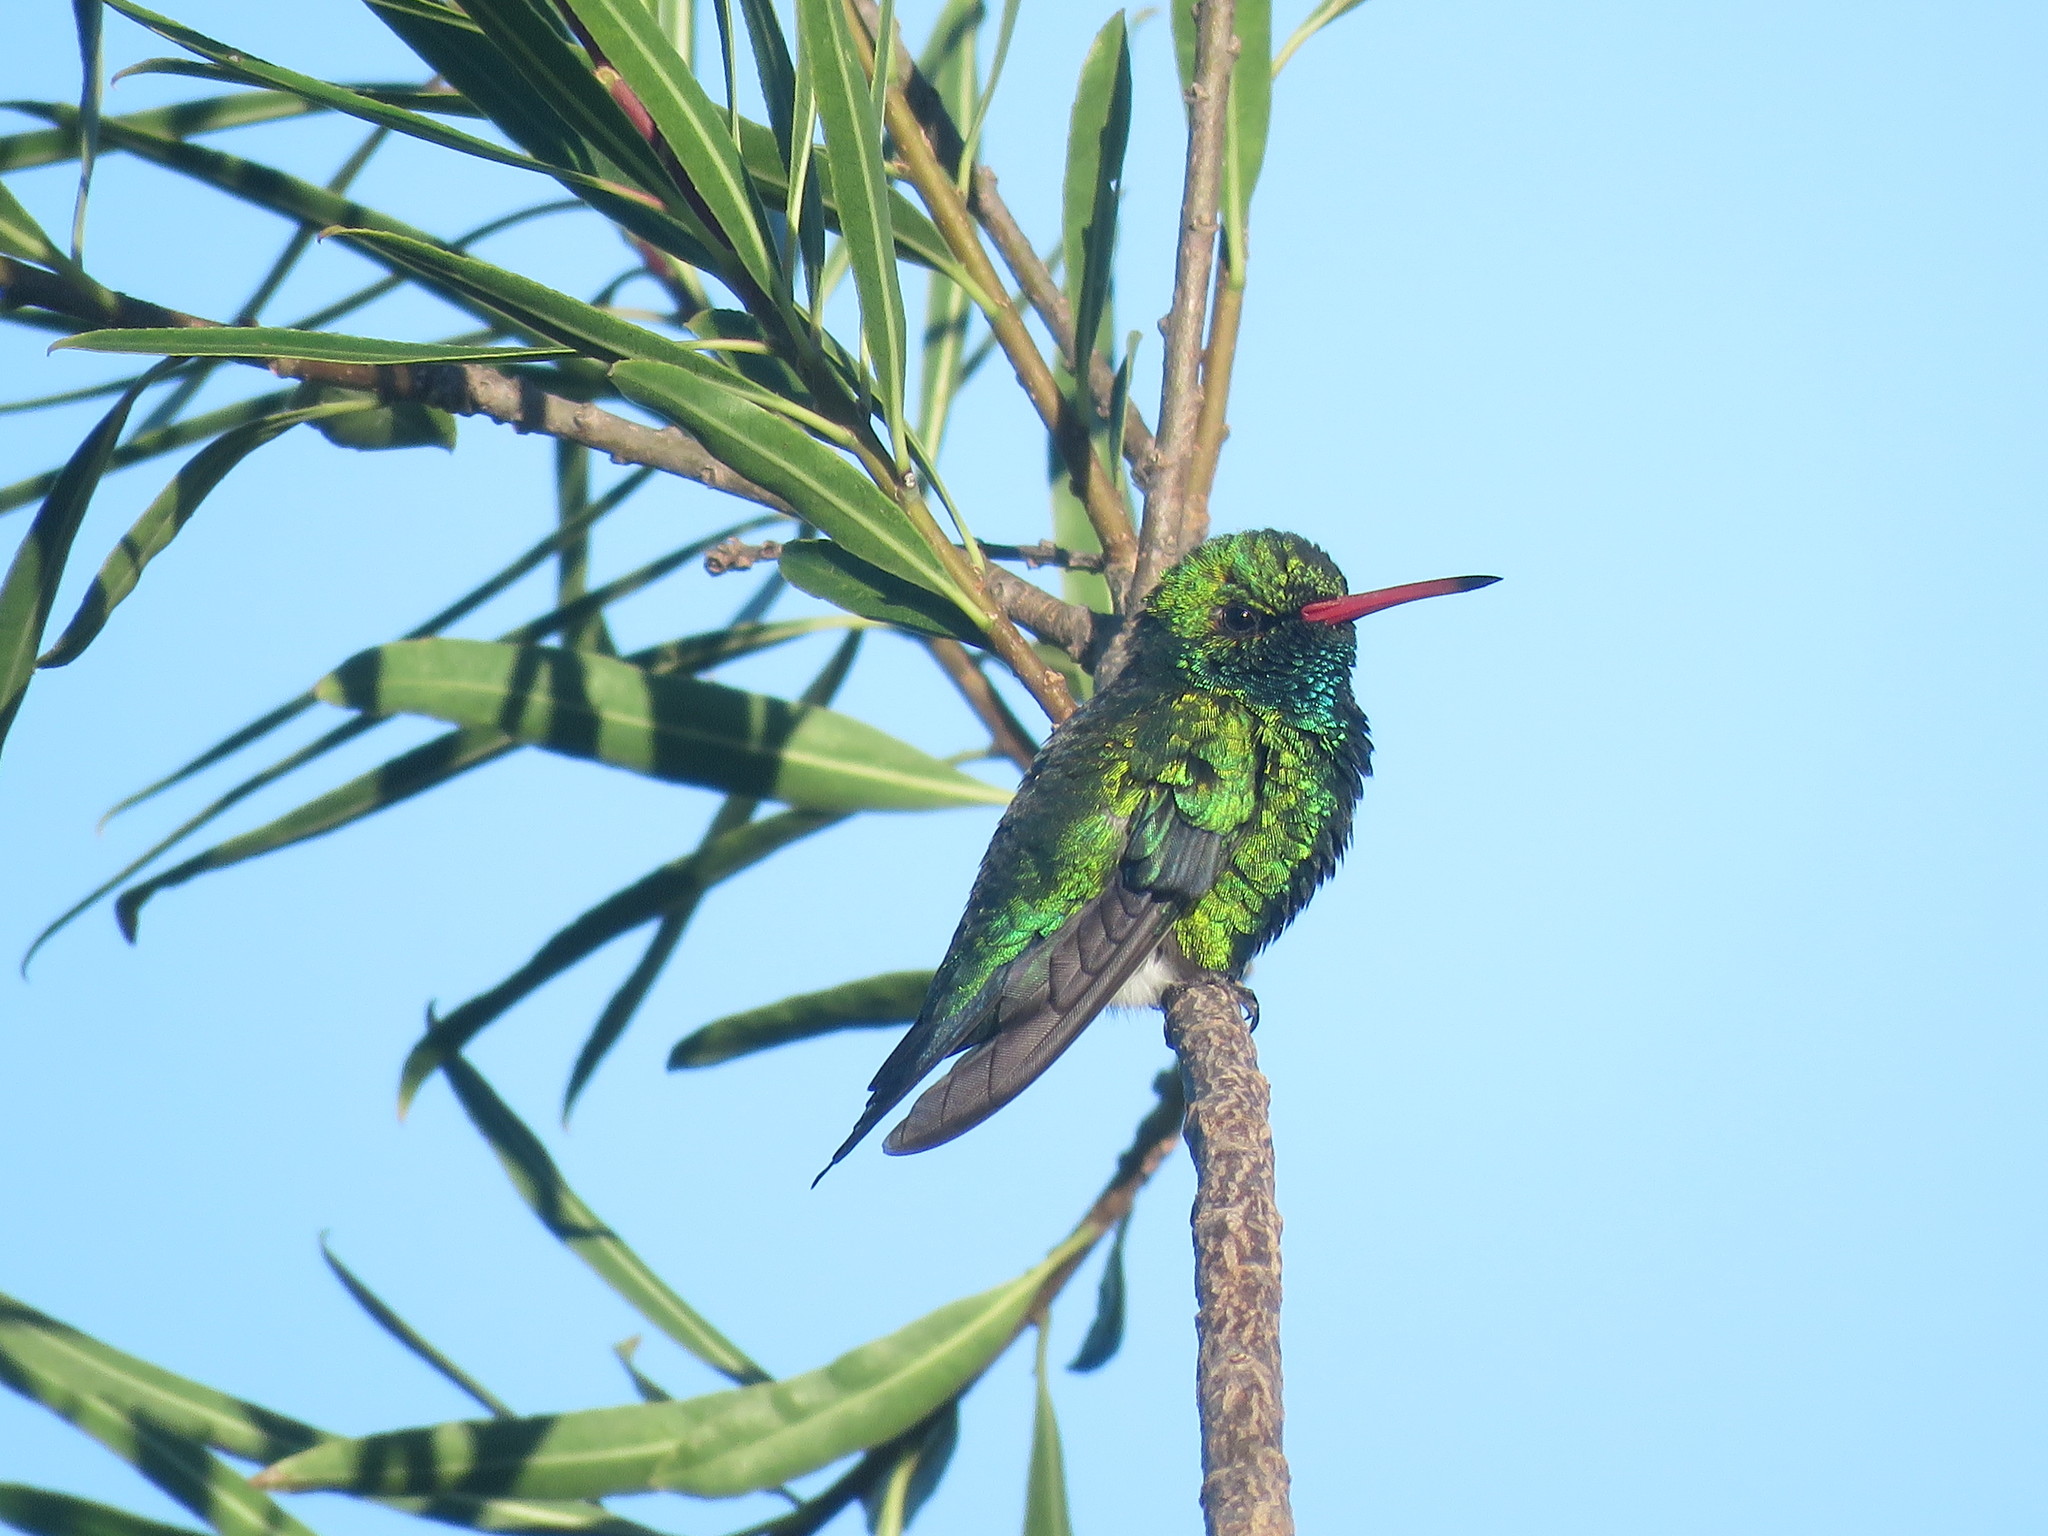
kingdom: Animalia
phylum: Chordata
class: Aves
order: Apodiformes
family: Trochilidae
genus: Chlorostilbon
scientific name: Chlorostilbon lucidus
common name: Glittering-bellied emerald
